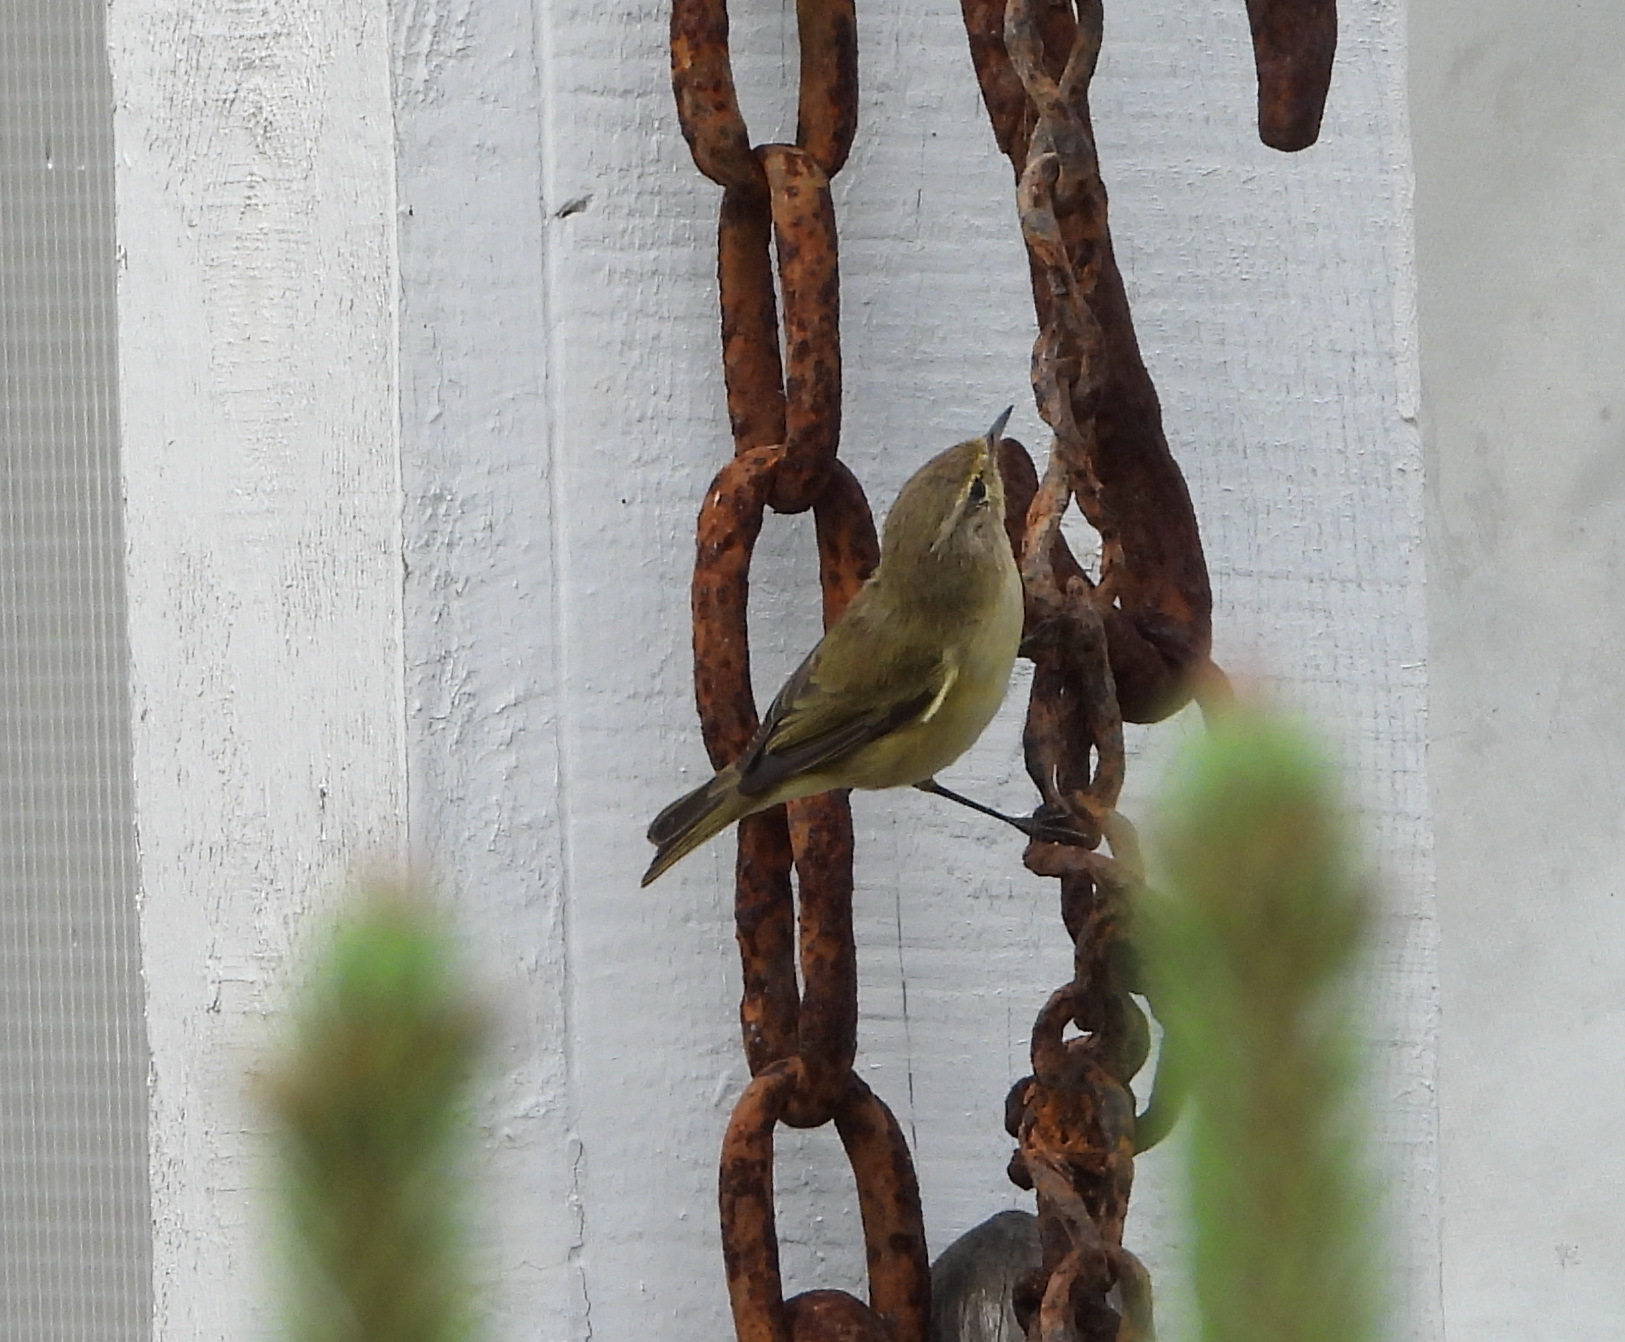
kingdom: Animalia
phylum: Chordata
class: Aves
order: Passeriformes
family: Phylloscopidae
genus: Phylloscopus
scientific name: Phylloscopus collybita
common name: Common chiffchaff
